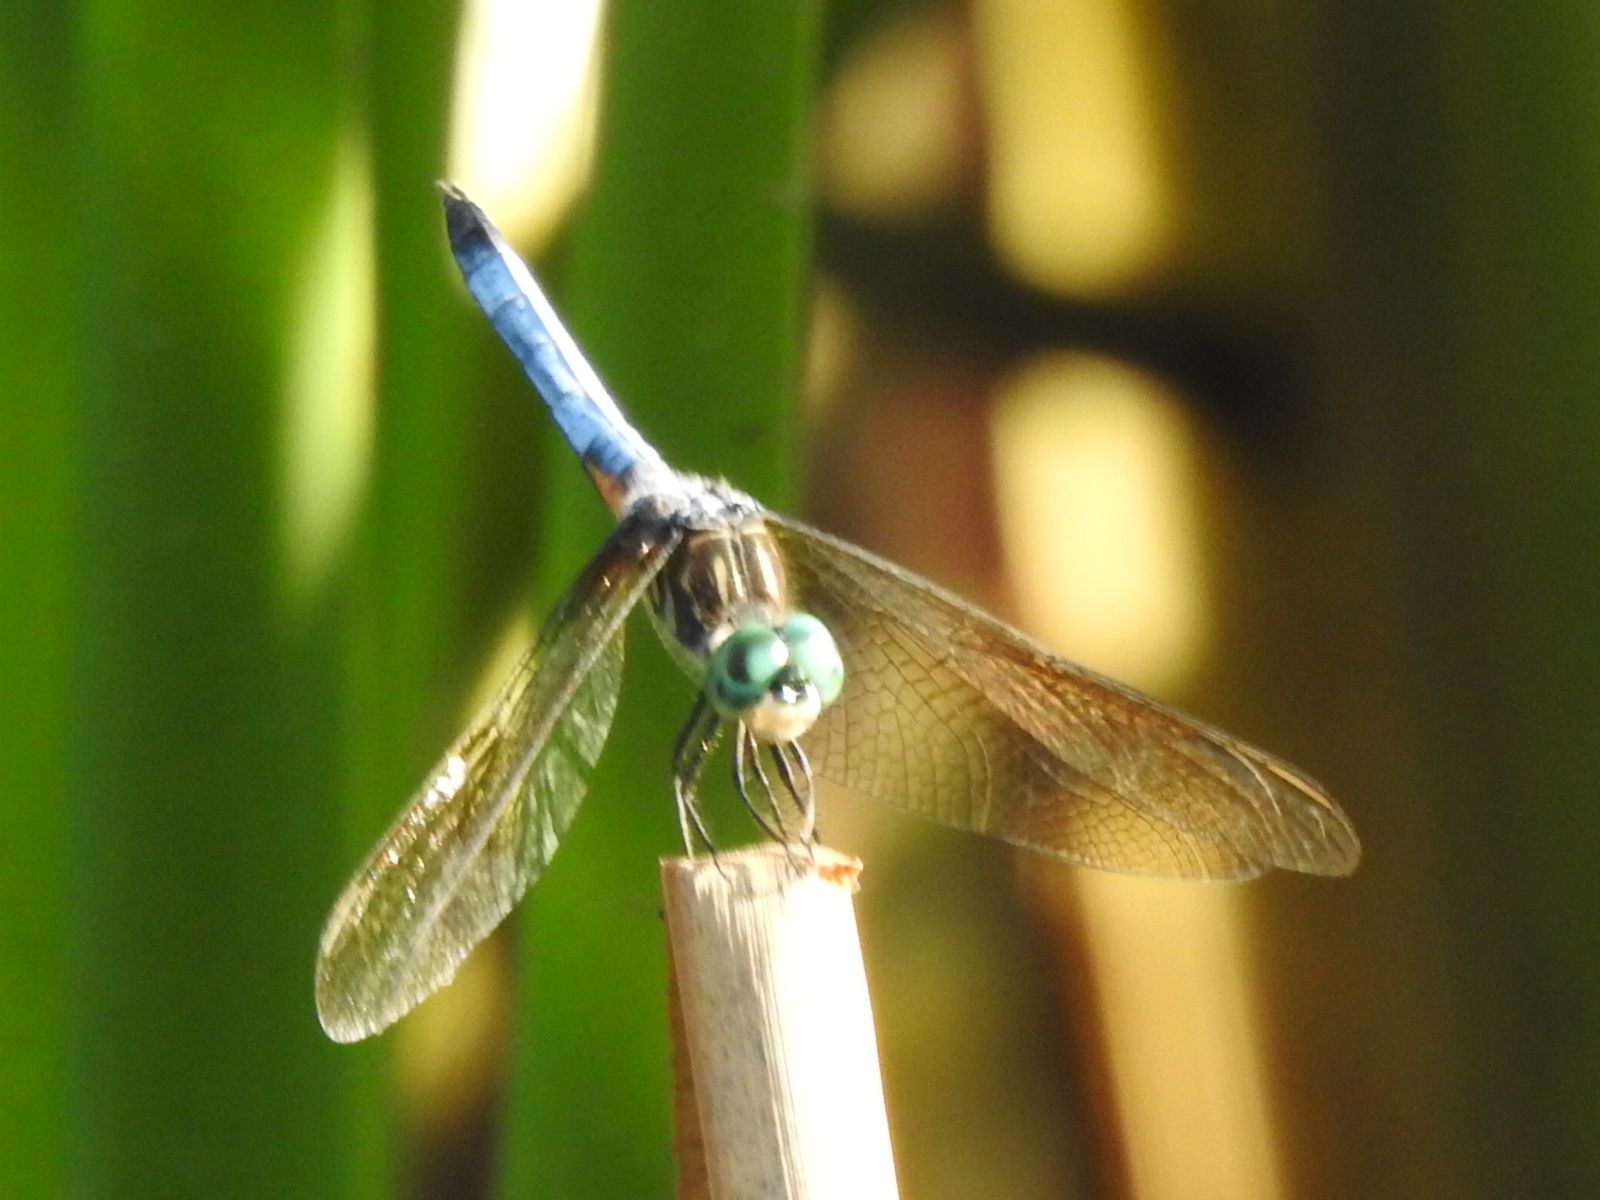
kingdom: Animalia
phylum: Arthropoda
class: Insecta
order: Odonata
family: Libellulidae
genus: Pachydiplax
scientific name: Pachydiplax longipennis
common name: Blue dasher
